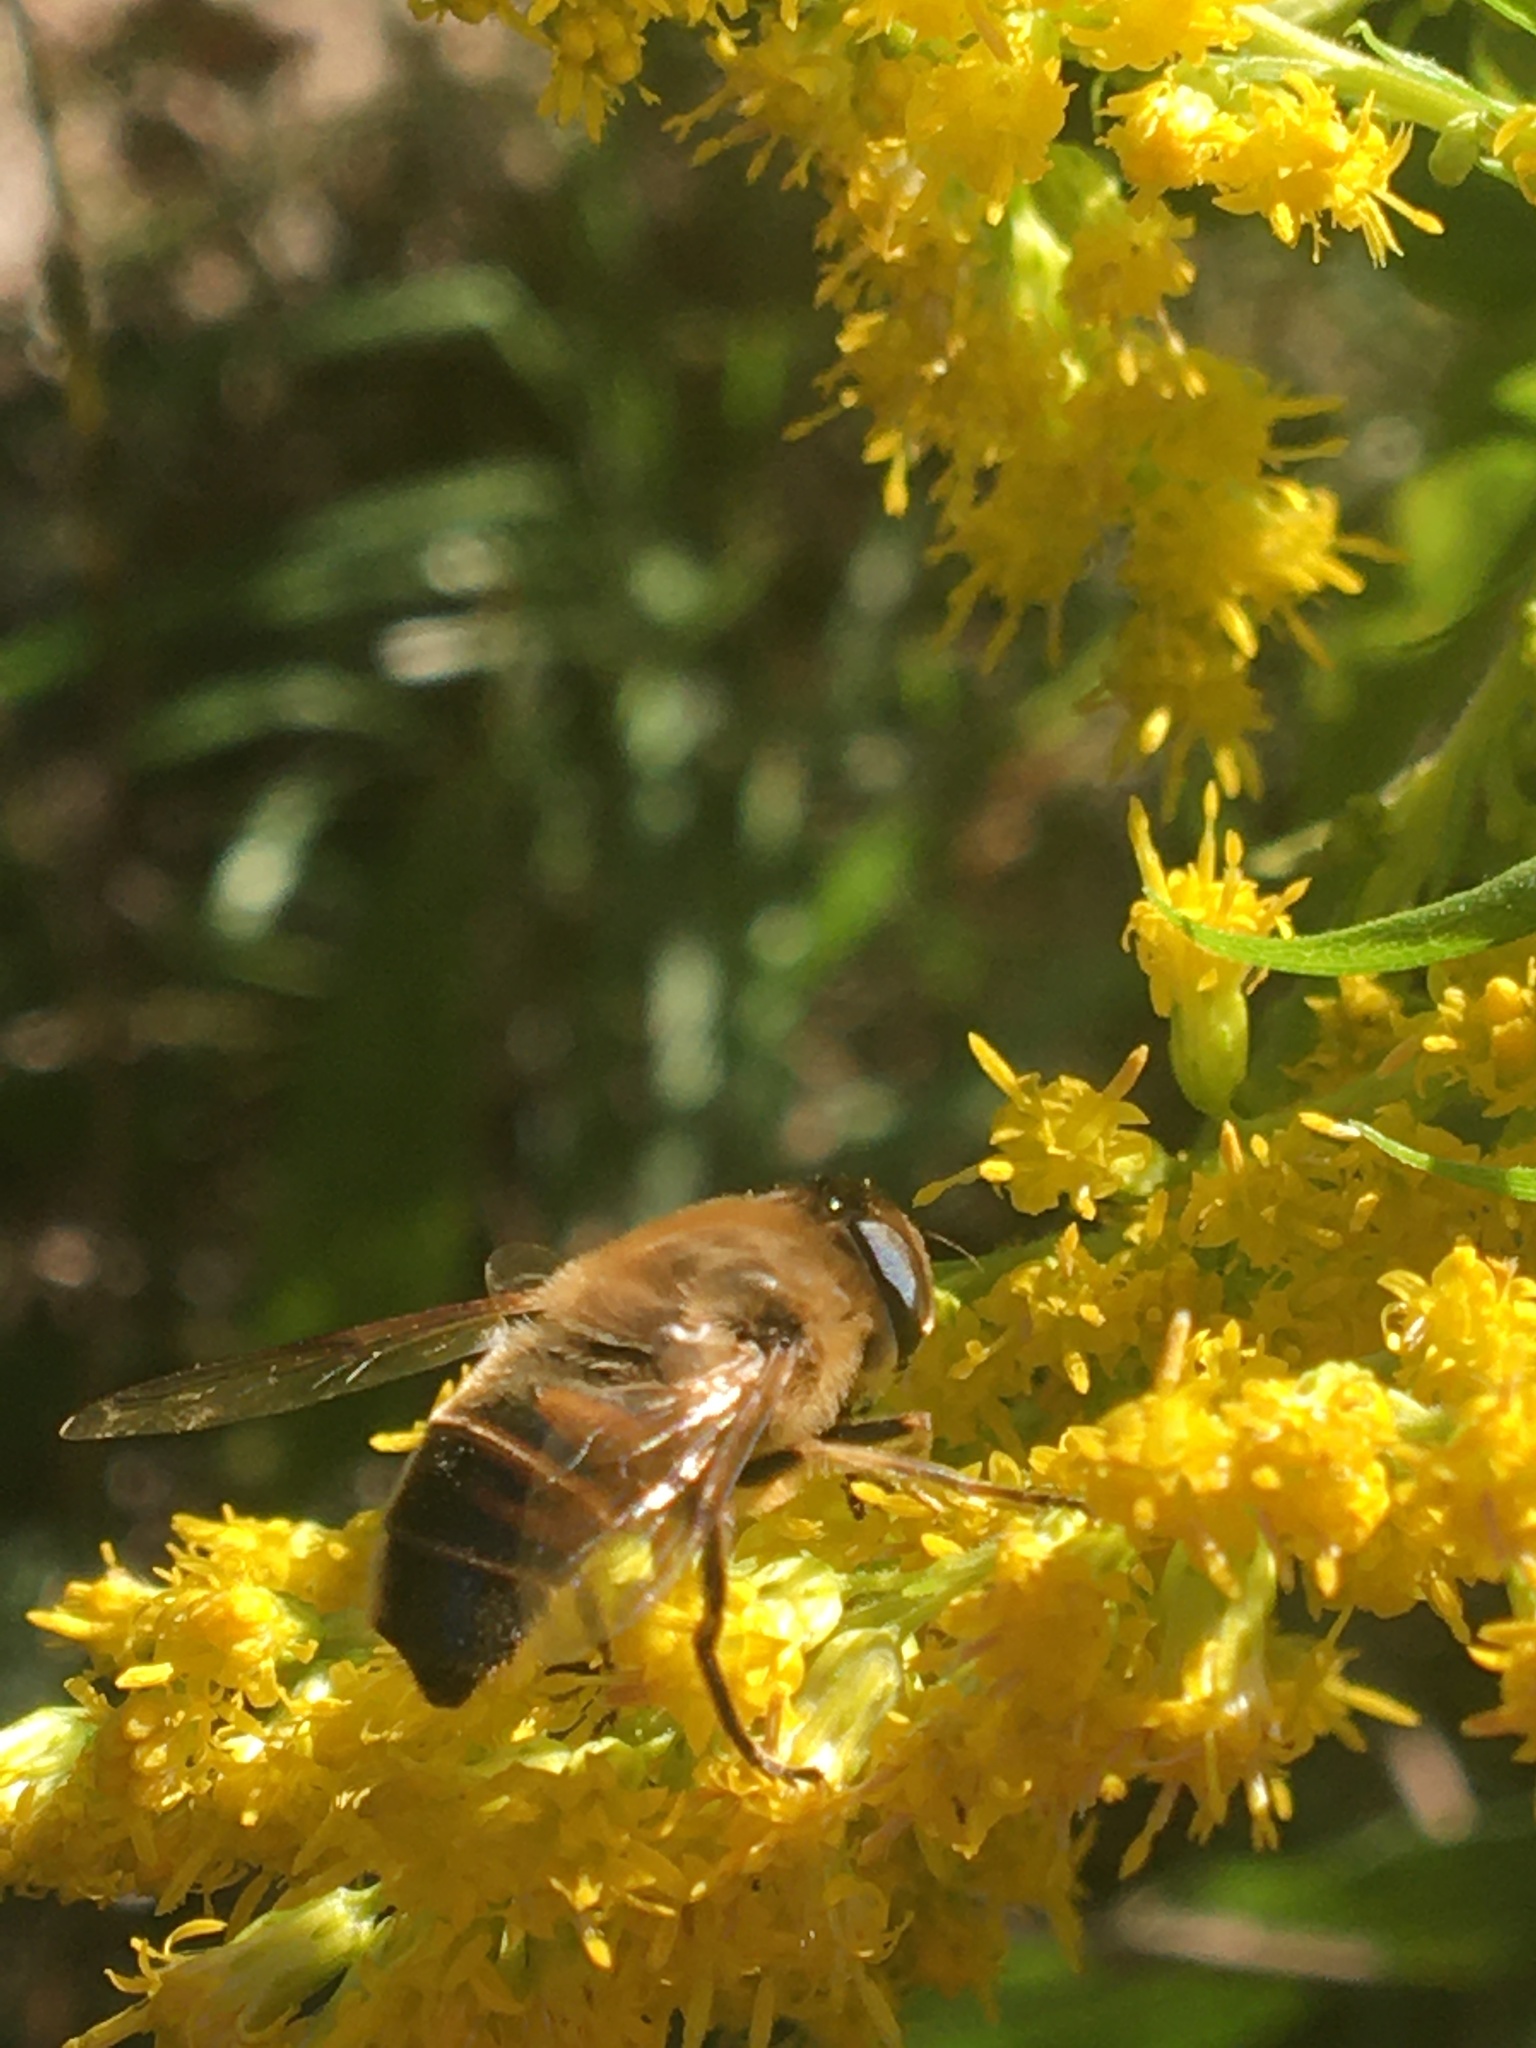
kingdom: Animalia
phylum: Arthropoda
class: Insecta
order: Diptera
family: Syrphidae
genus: Eristalis
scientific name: Eristalis tenax
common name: Drone fly
